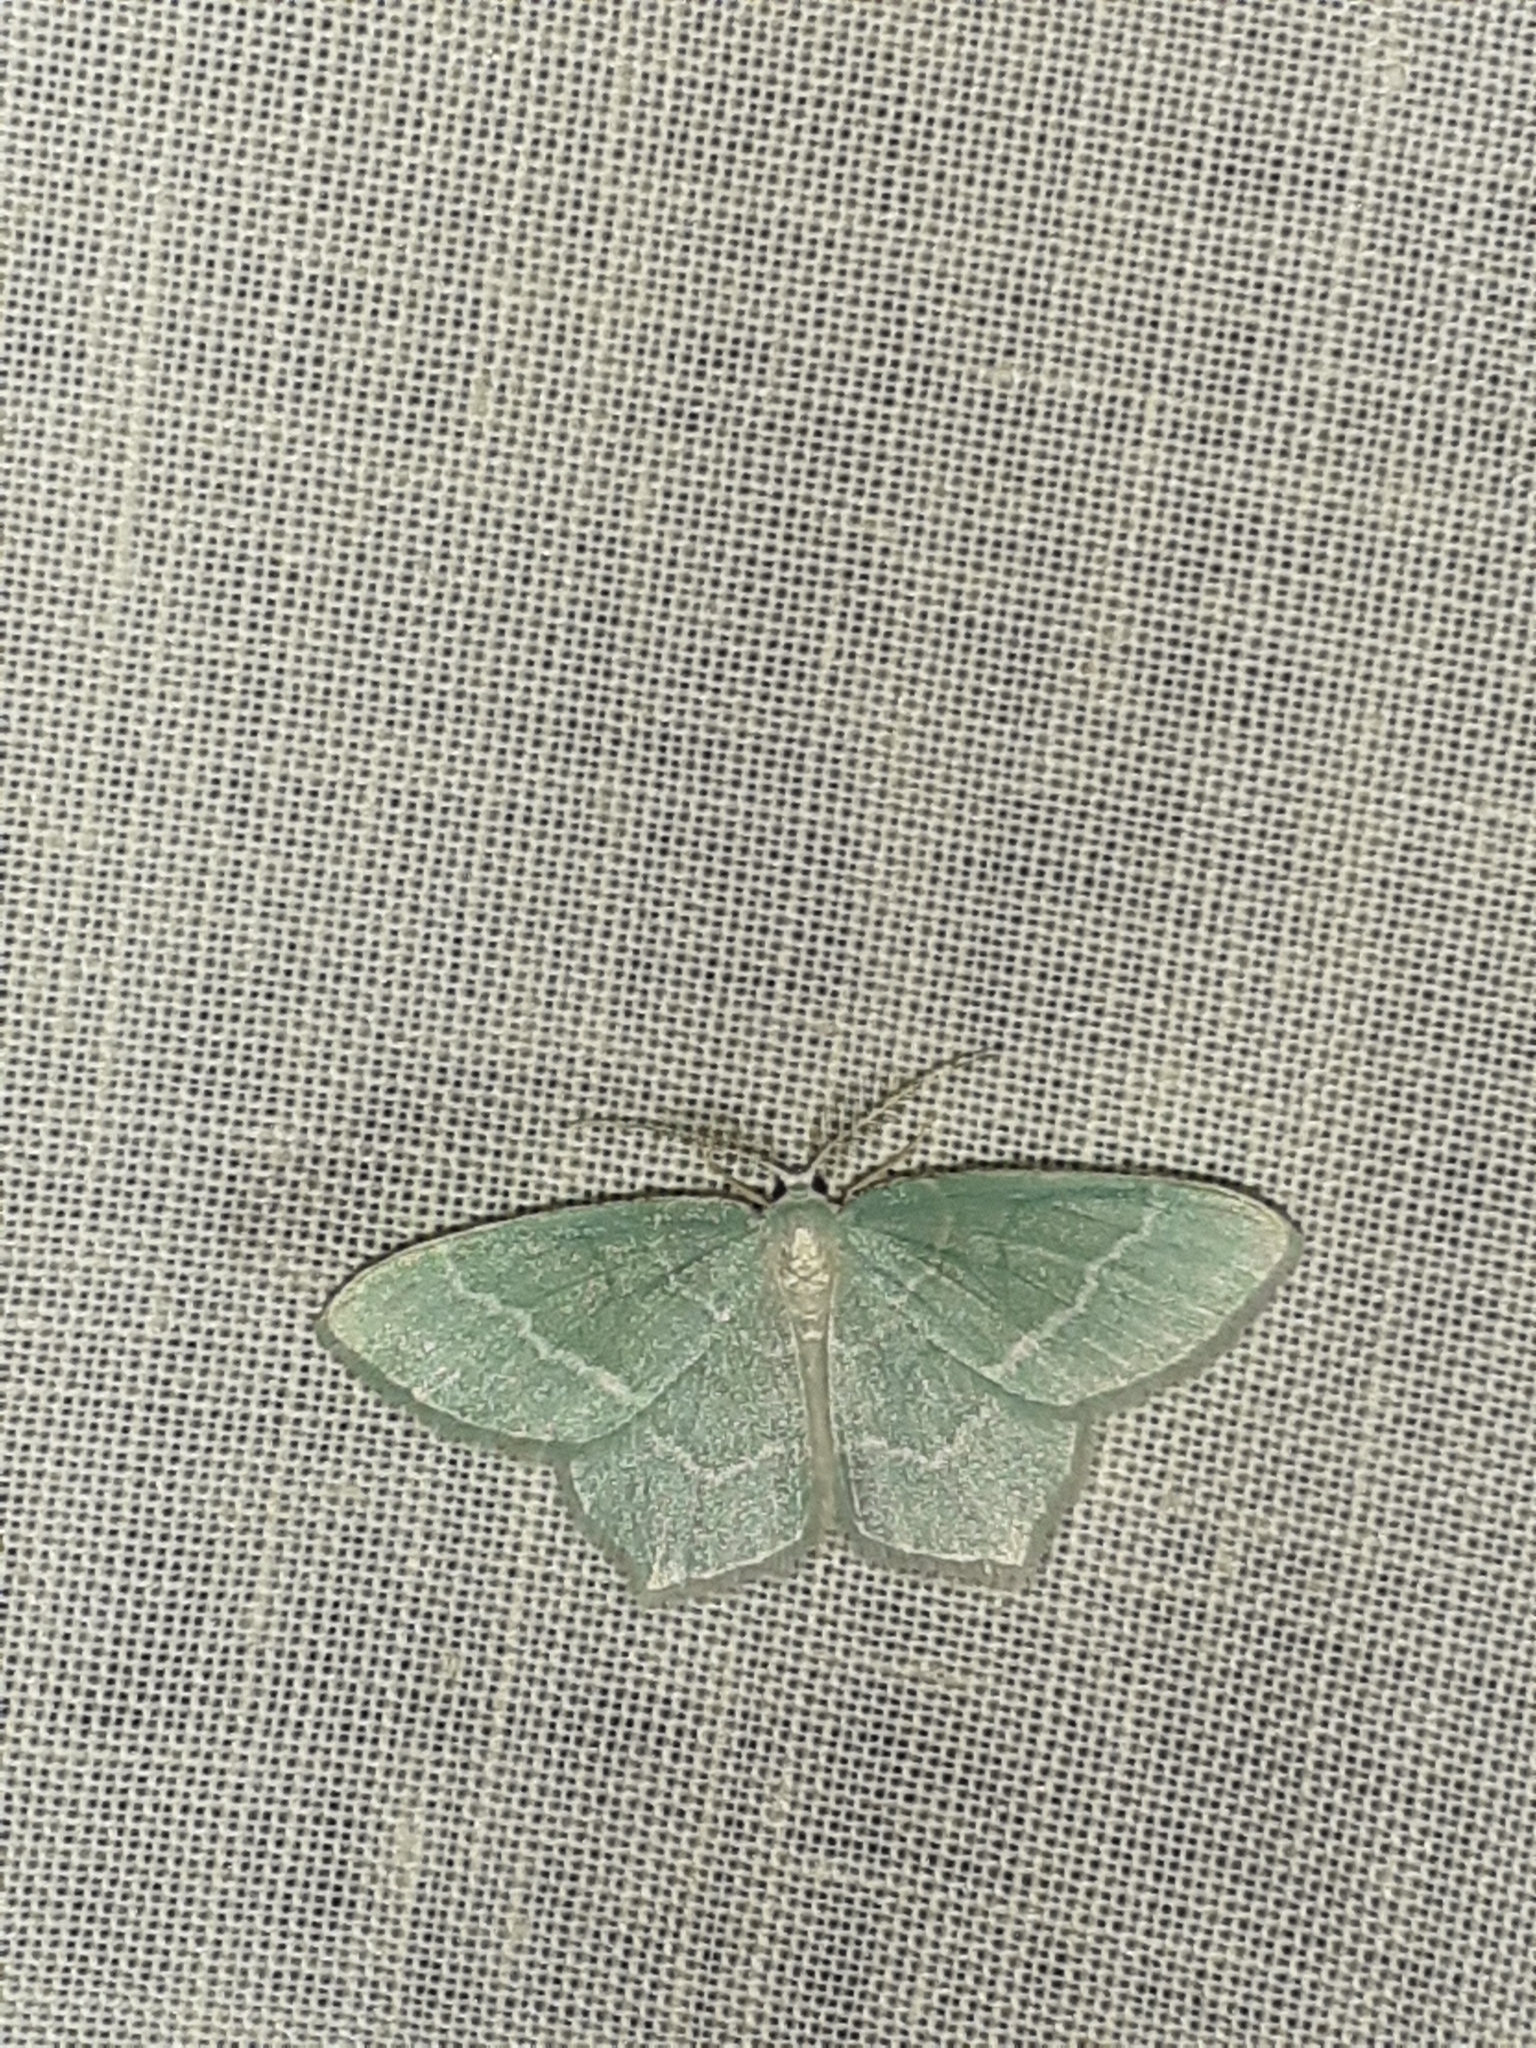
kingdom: Animalia
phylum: Arthropoda
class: Insecta
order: Lepidoptera
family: Geometridae
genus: Jodis
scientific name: Jodis lactearia
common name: Little emerald
